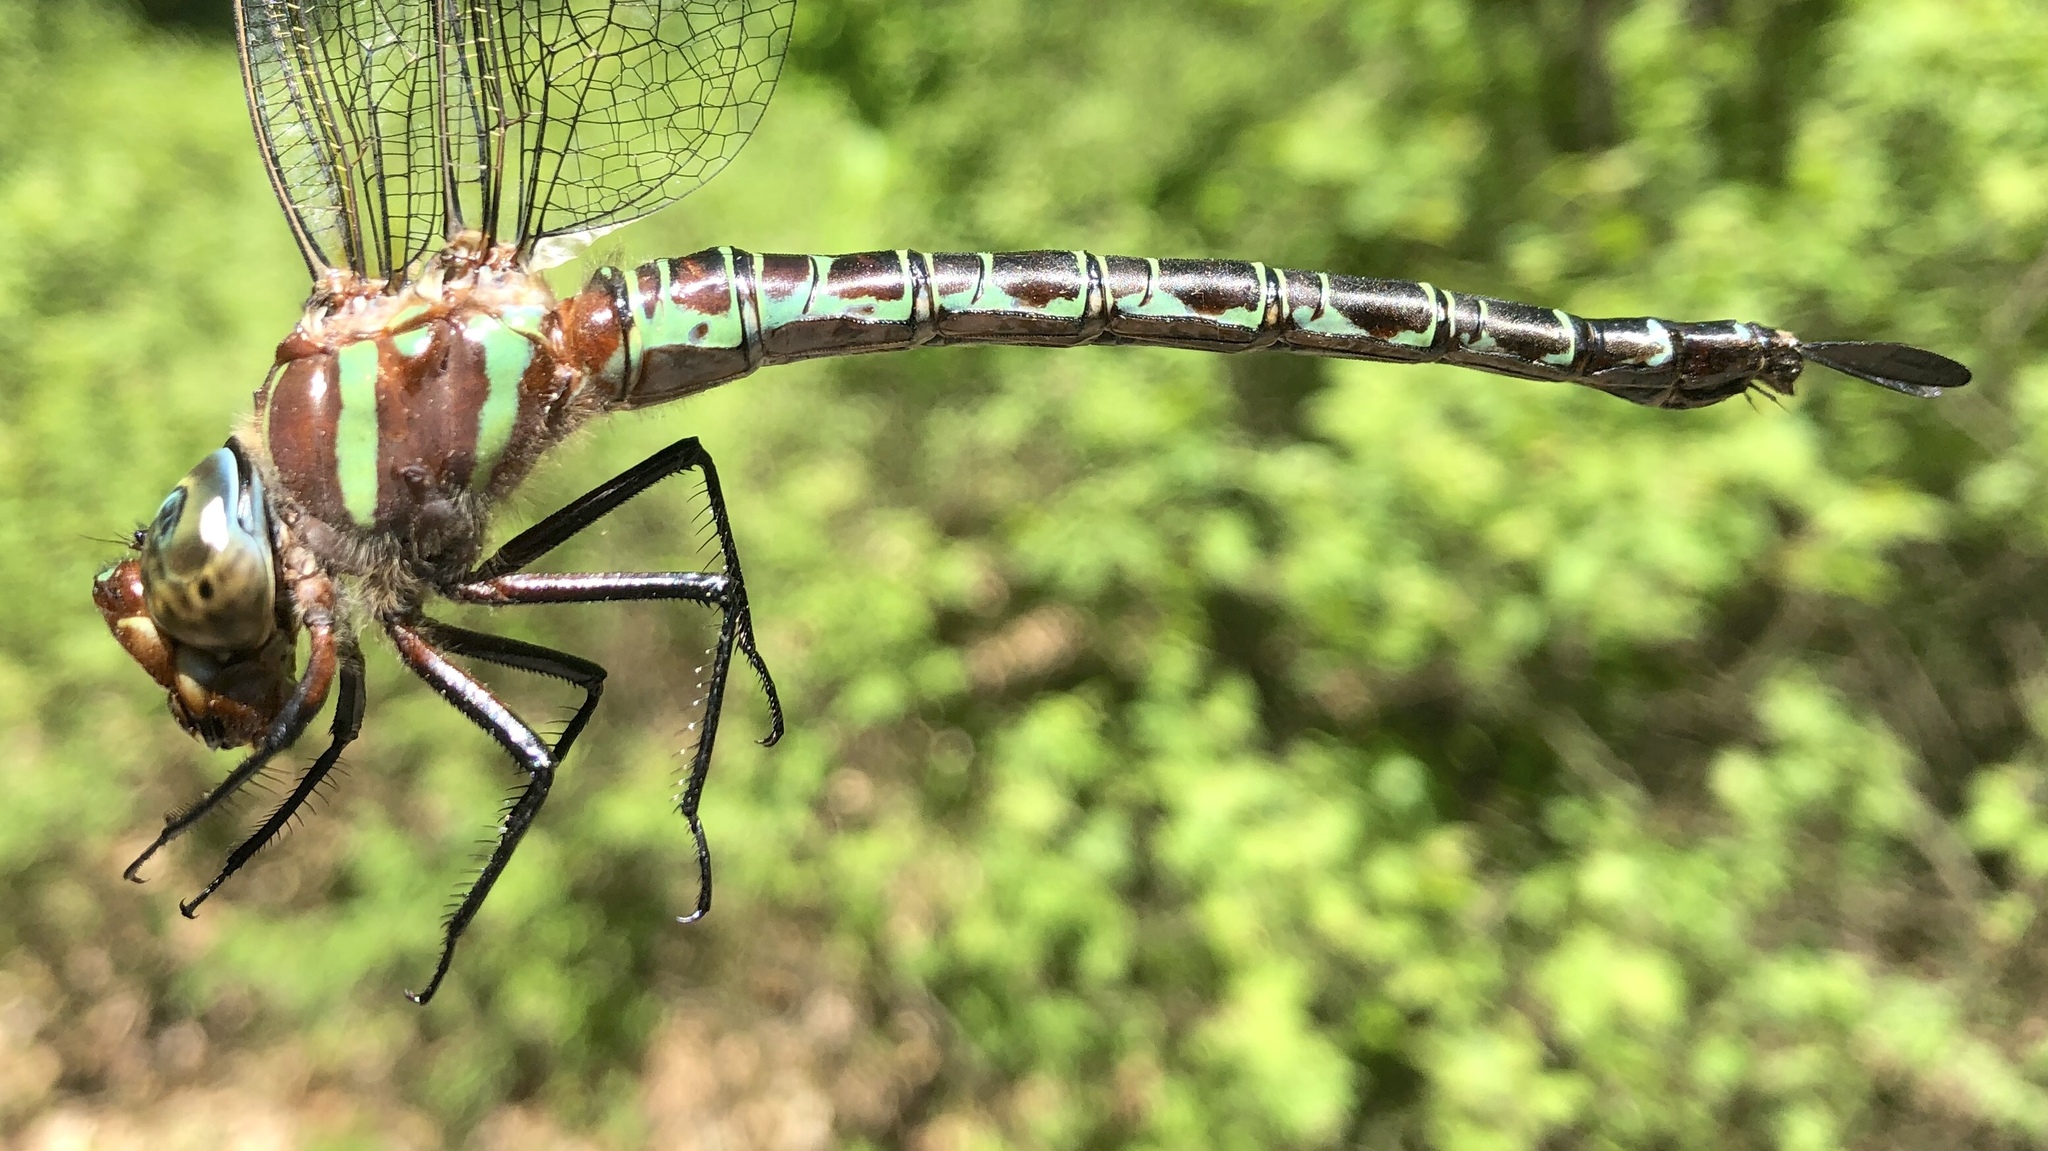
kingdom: Animalia
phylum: Arthropoda
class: Insecta
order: Odonata
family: Aeshnidae
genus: Epiaeschna
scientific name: Epiaeschna heros
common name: Swamp darner
